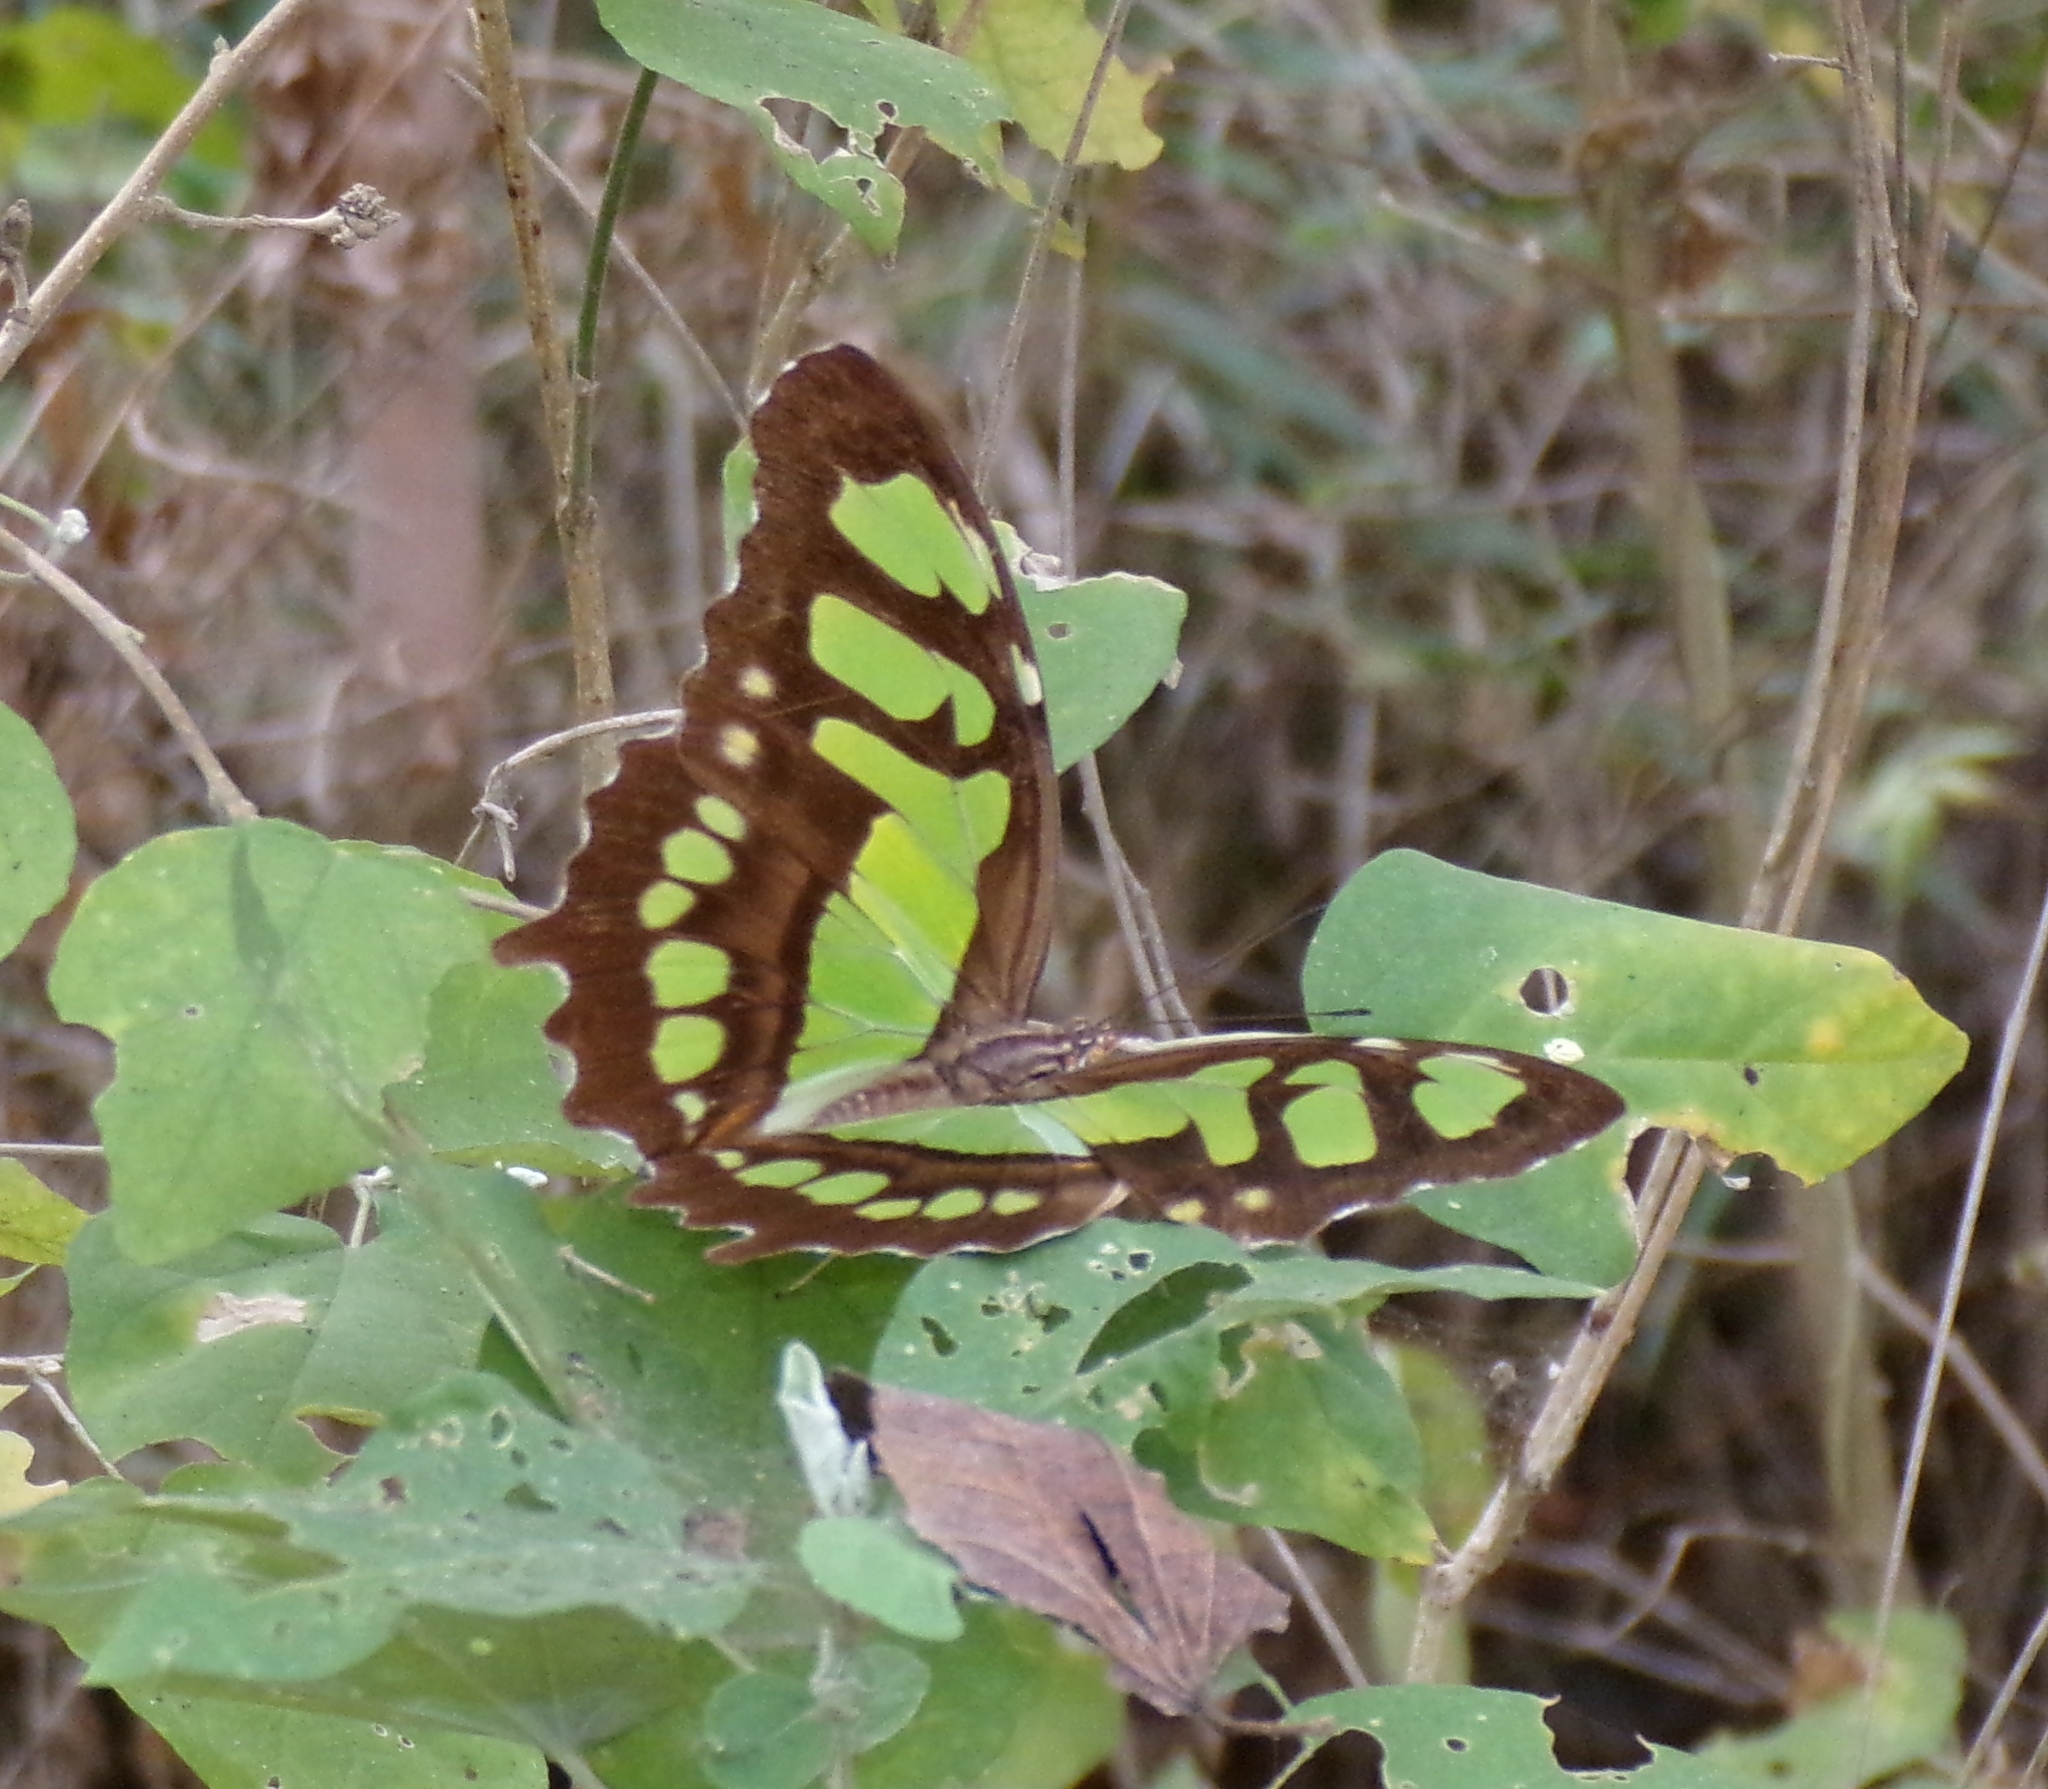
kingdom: Animalia
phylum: Arthropoda
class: Insecta
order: Lepidoptera
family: Nymphalidae
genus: Siproeta
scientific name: Siproeta stelenes
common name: Malachite
